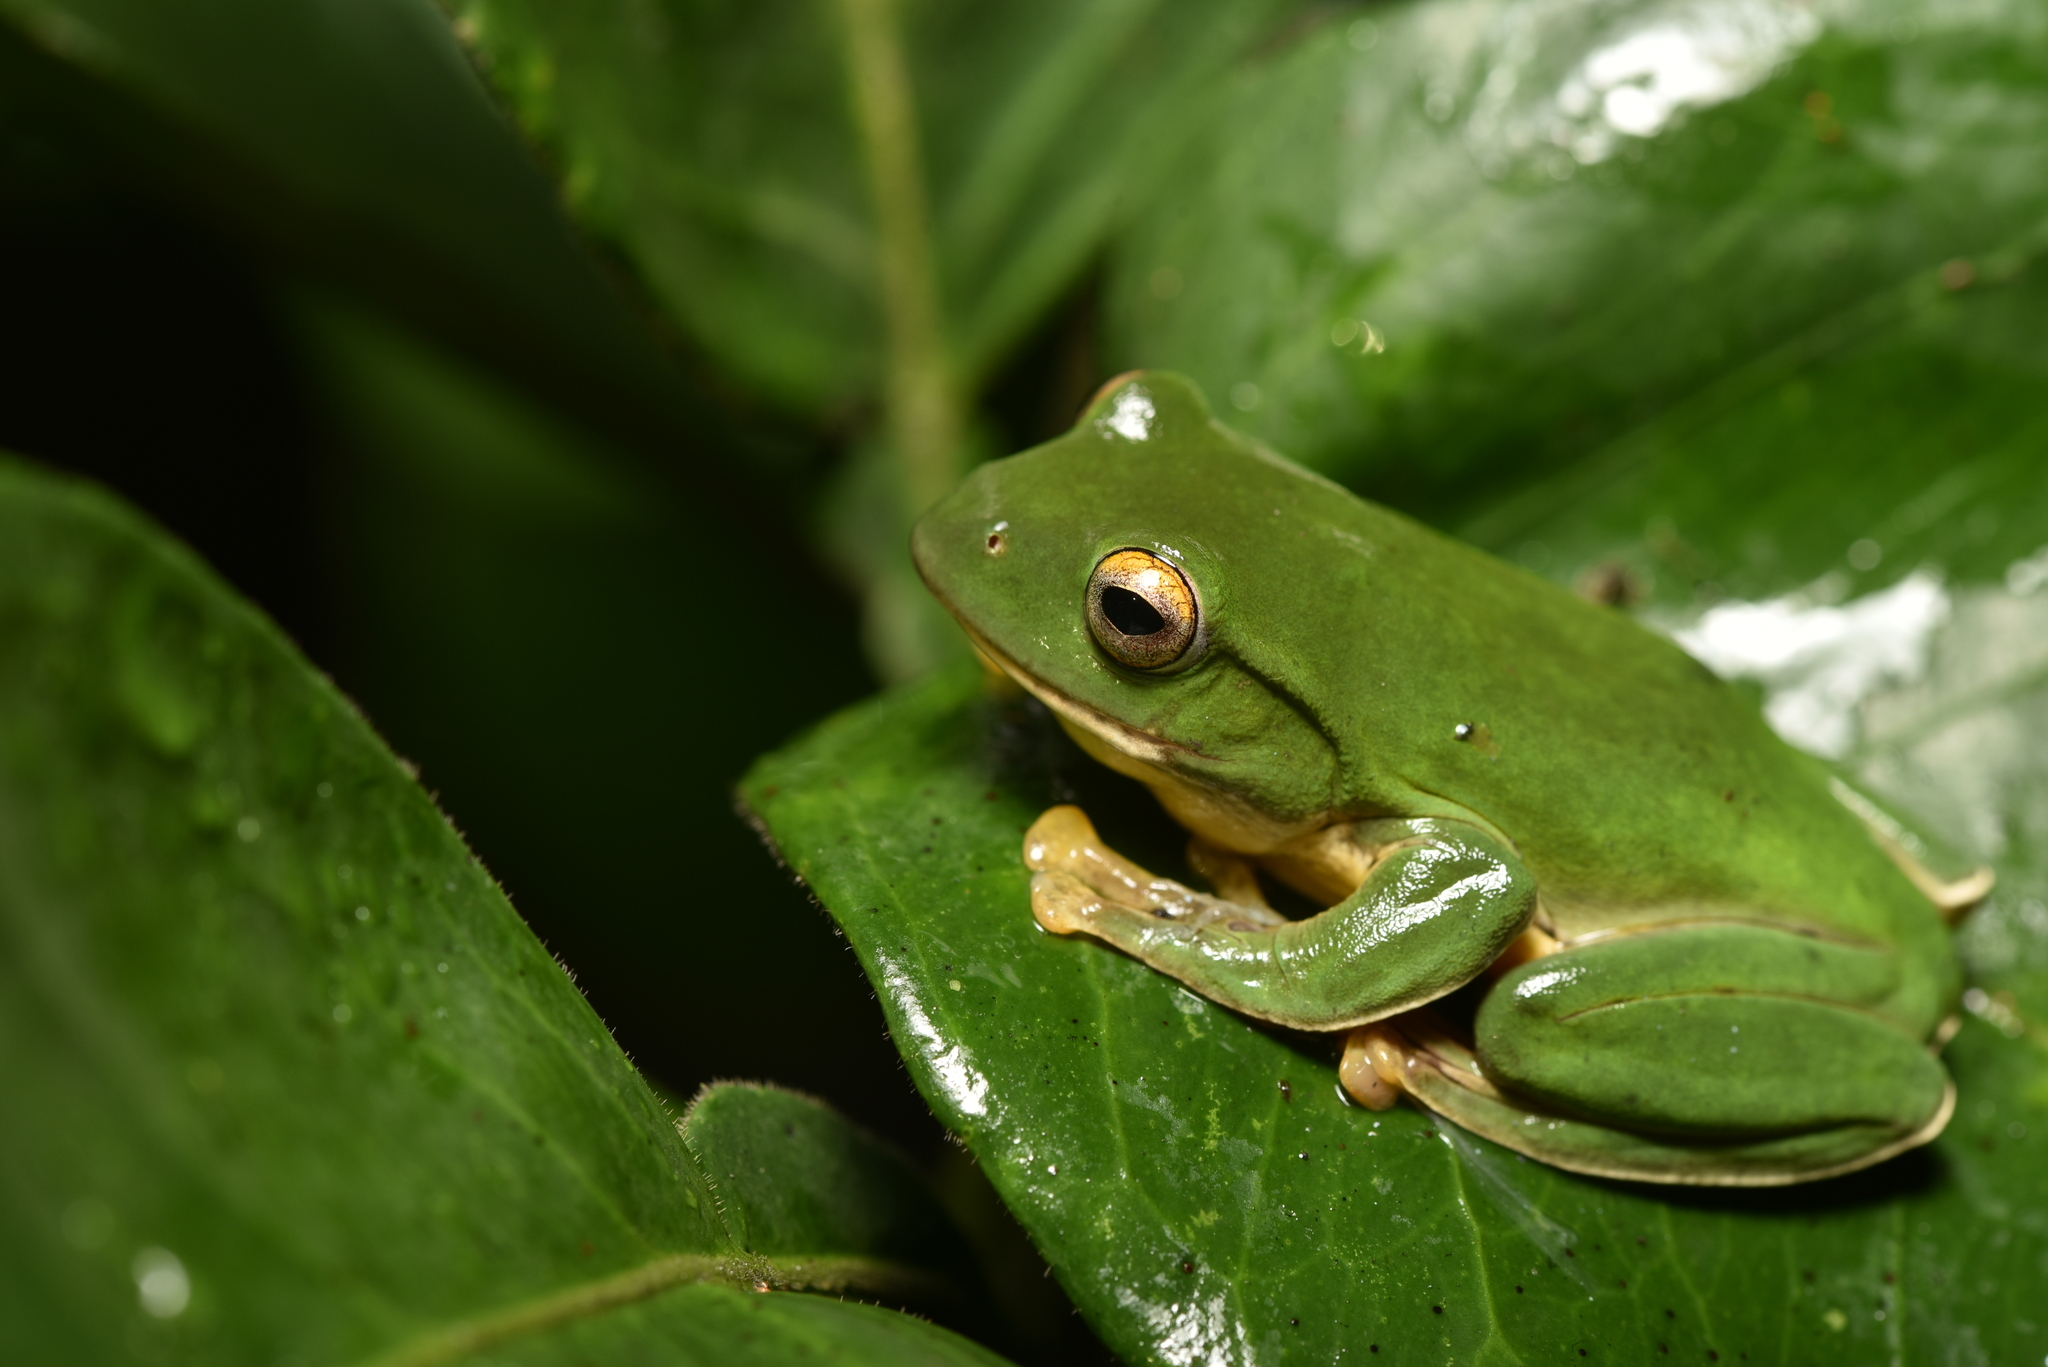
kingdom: Animalia
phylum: Chordata
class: Amphibia
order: Anura
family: Rhacophoridae
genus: Zhangixalus
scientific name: Zhangixalus moltrechti
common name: Moltrecht's treefrog
